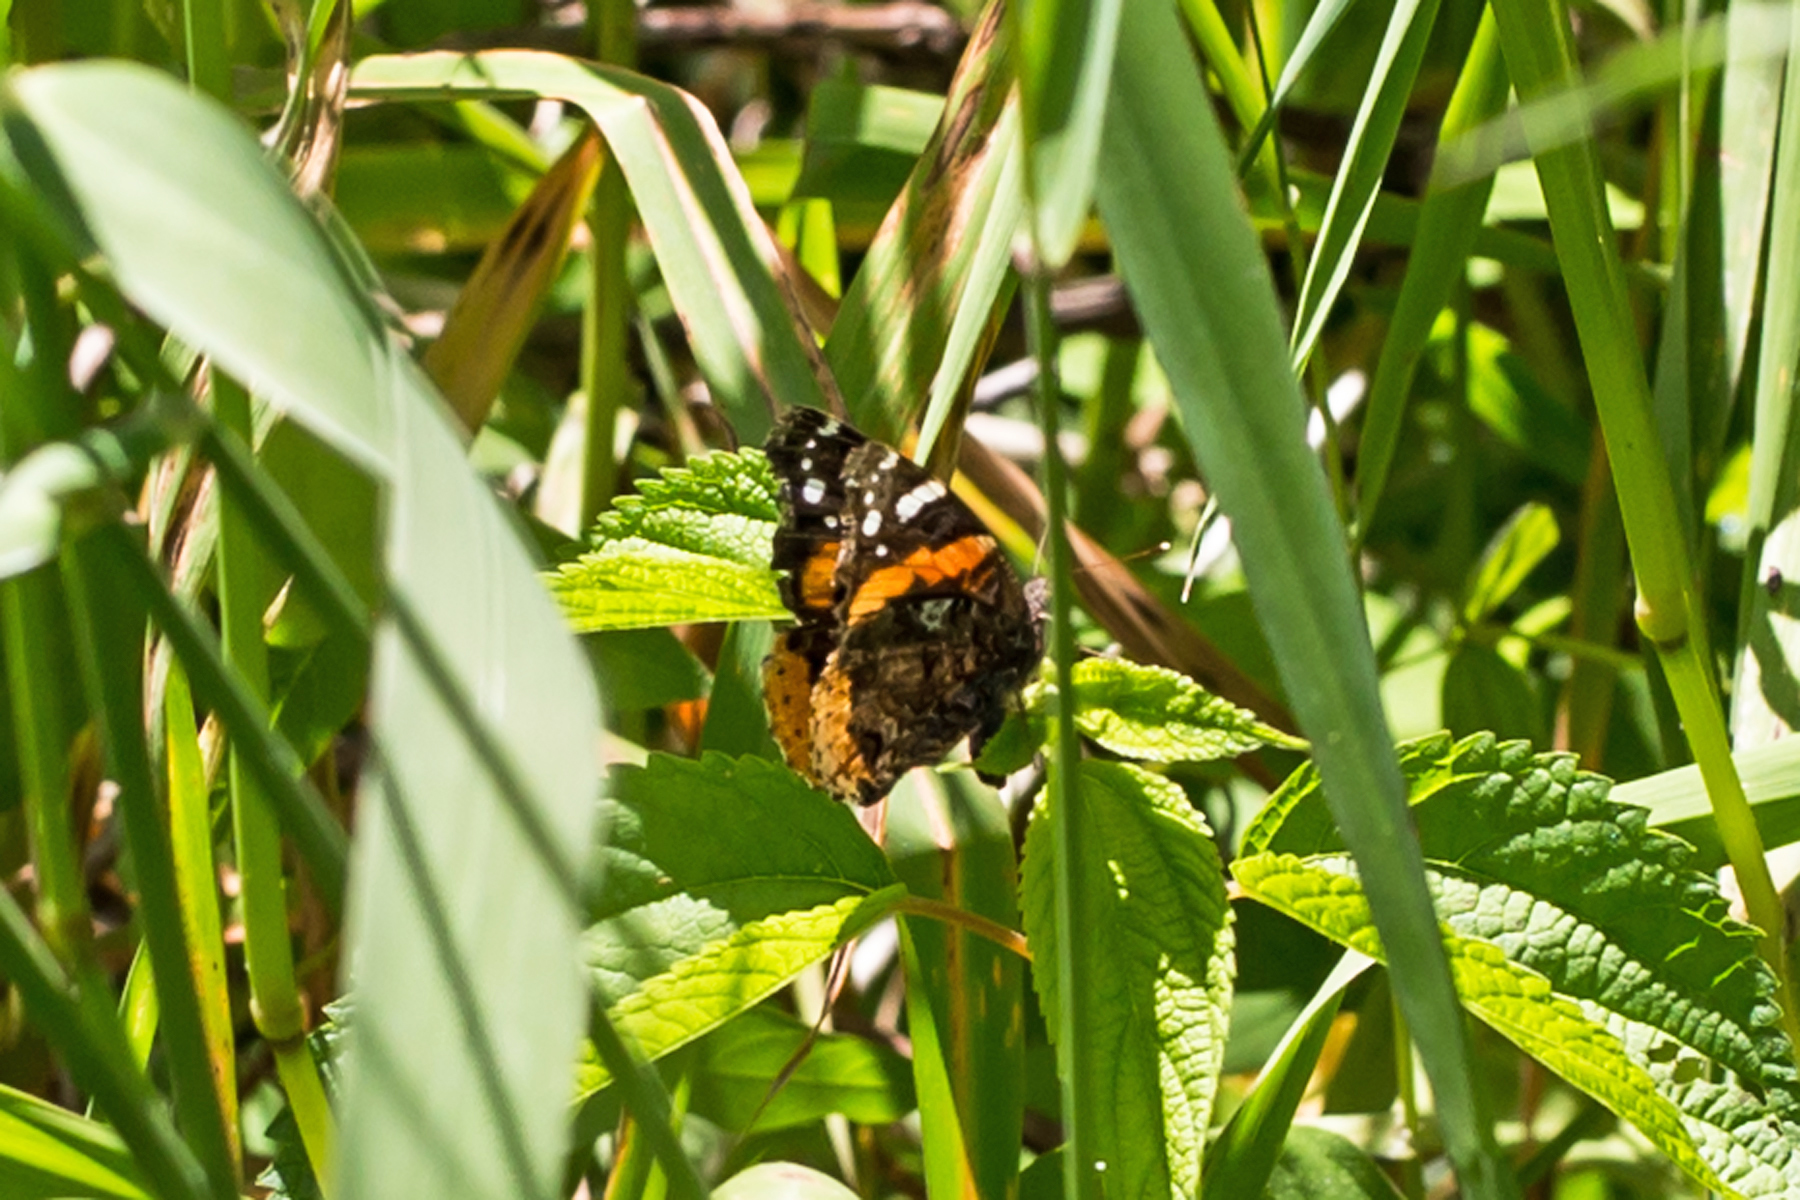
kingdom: Animalia
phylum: Arthropoda
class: Insecta
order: Lepidoptera
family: Nymphalidae
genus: Vanessa
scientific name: Vanessa atalanta
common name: Red admiral
